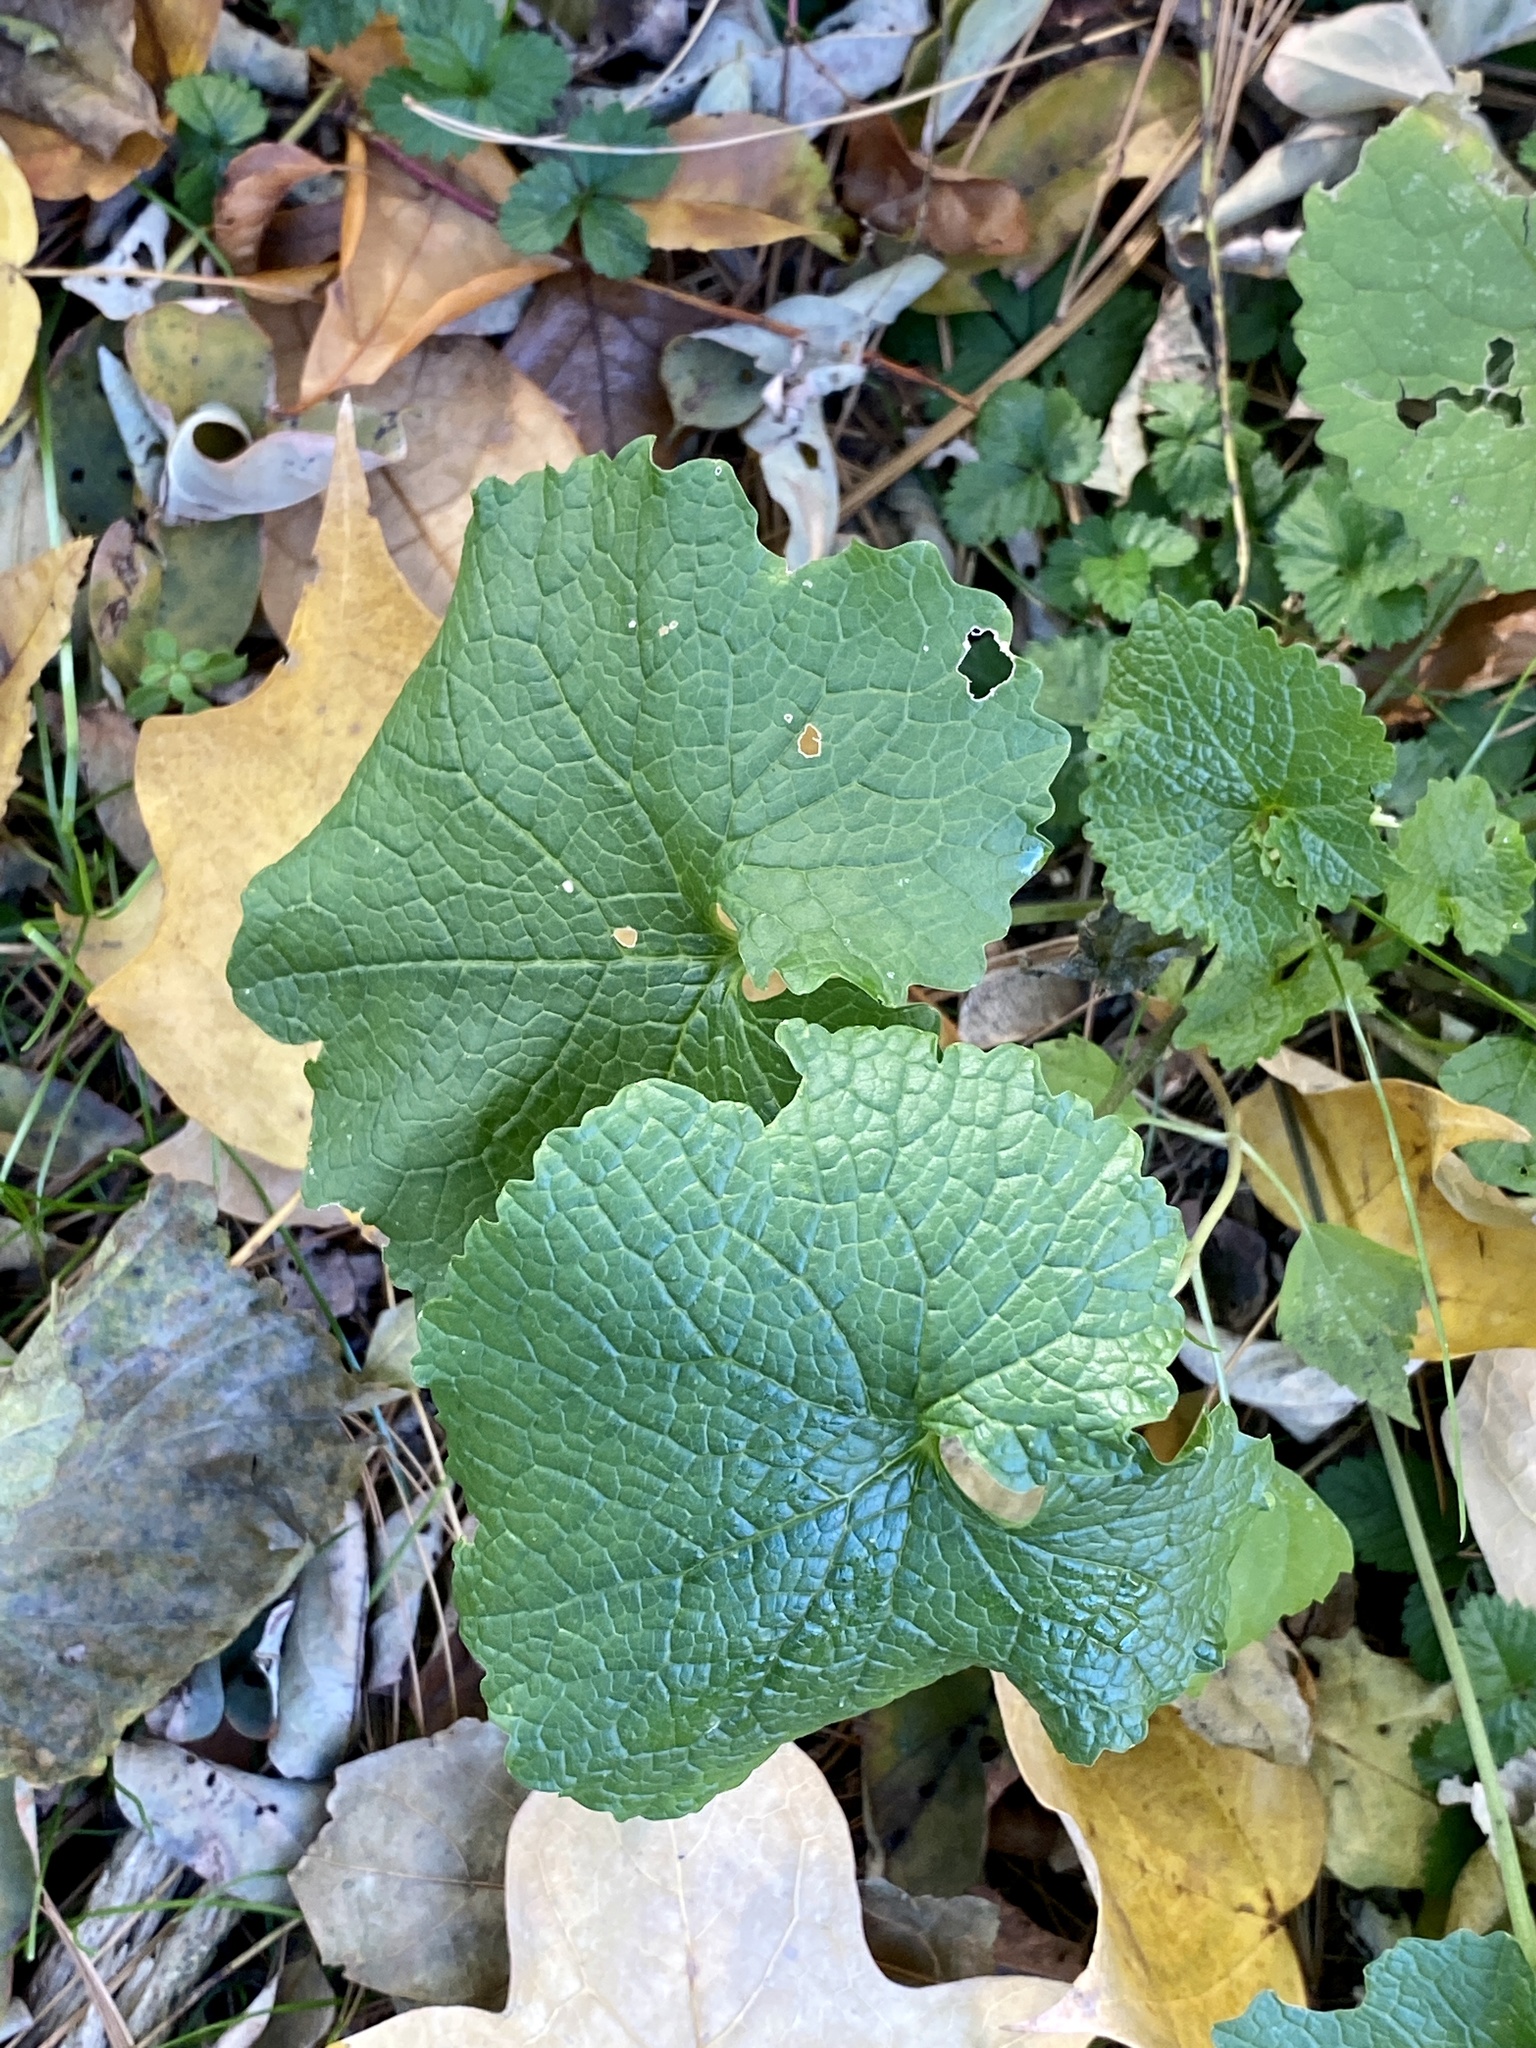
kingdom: Plantae
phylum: Tracheophyta
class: Magnoliopsida
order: Brassicales
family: Brassicaceae
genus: Alliaria
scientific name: Alliaria petiolata
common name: Garlic mustard
